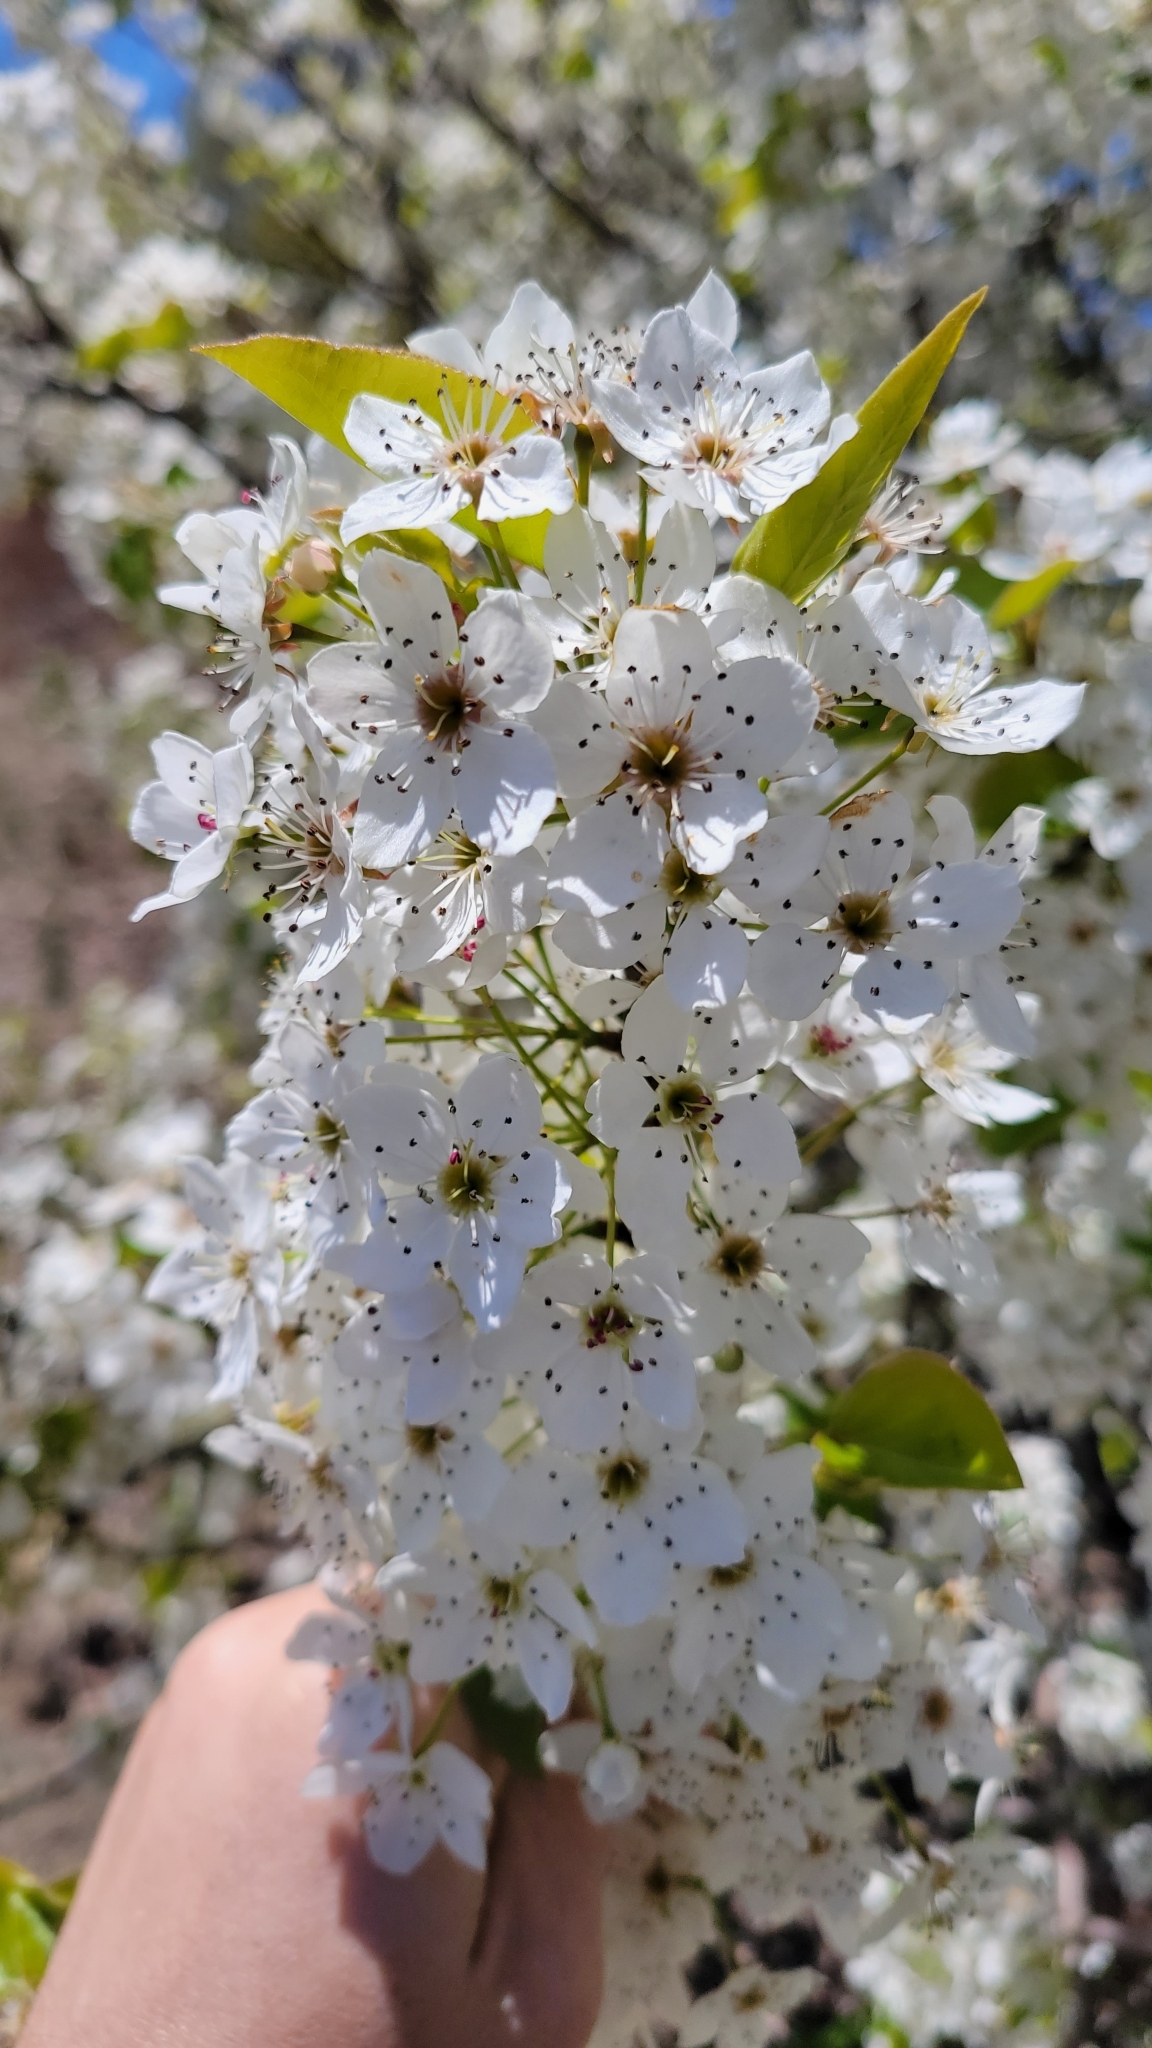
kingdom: Plantae
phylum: Tracheophyta
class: Magnoliopsida
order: Rosales
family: Rosaceae
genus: Pyrus
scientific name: Pyrus calleryana
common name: Callery pear
